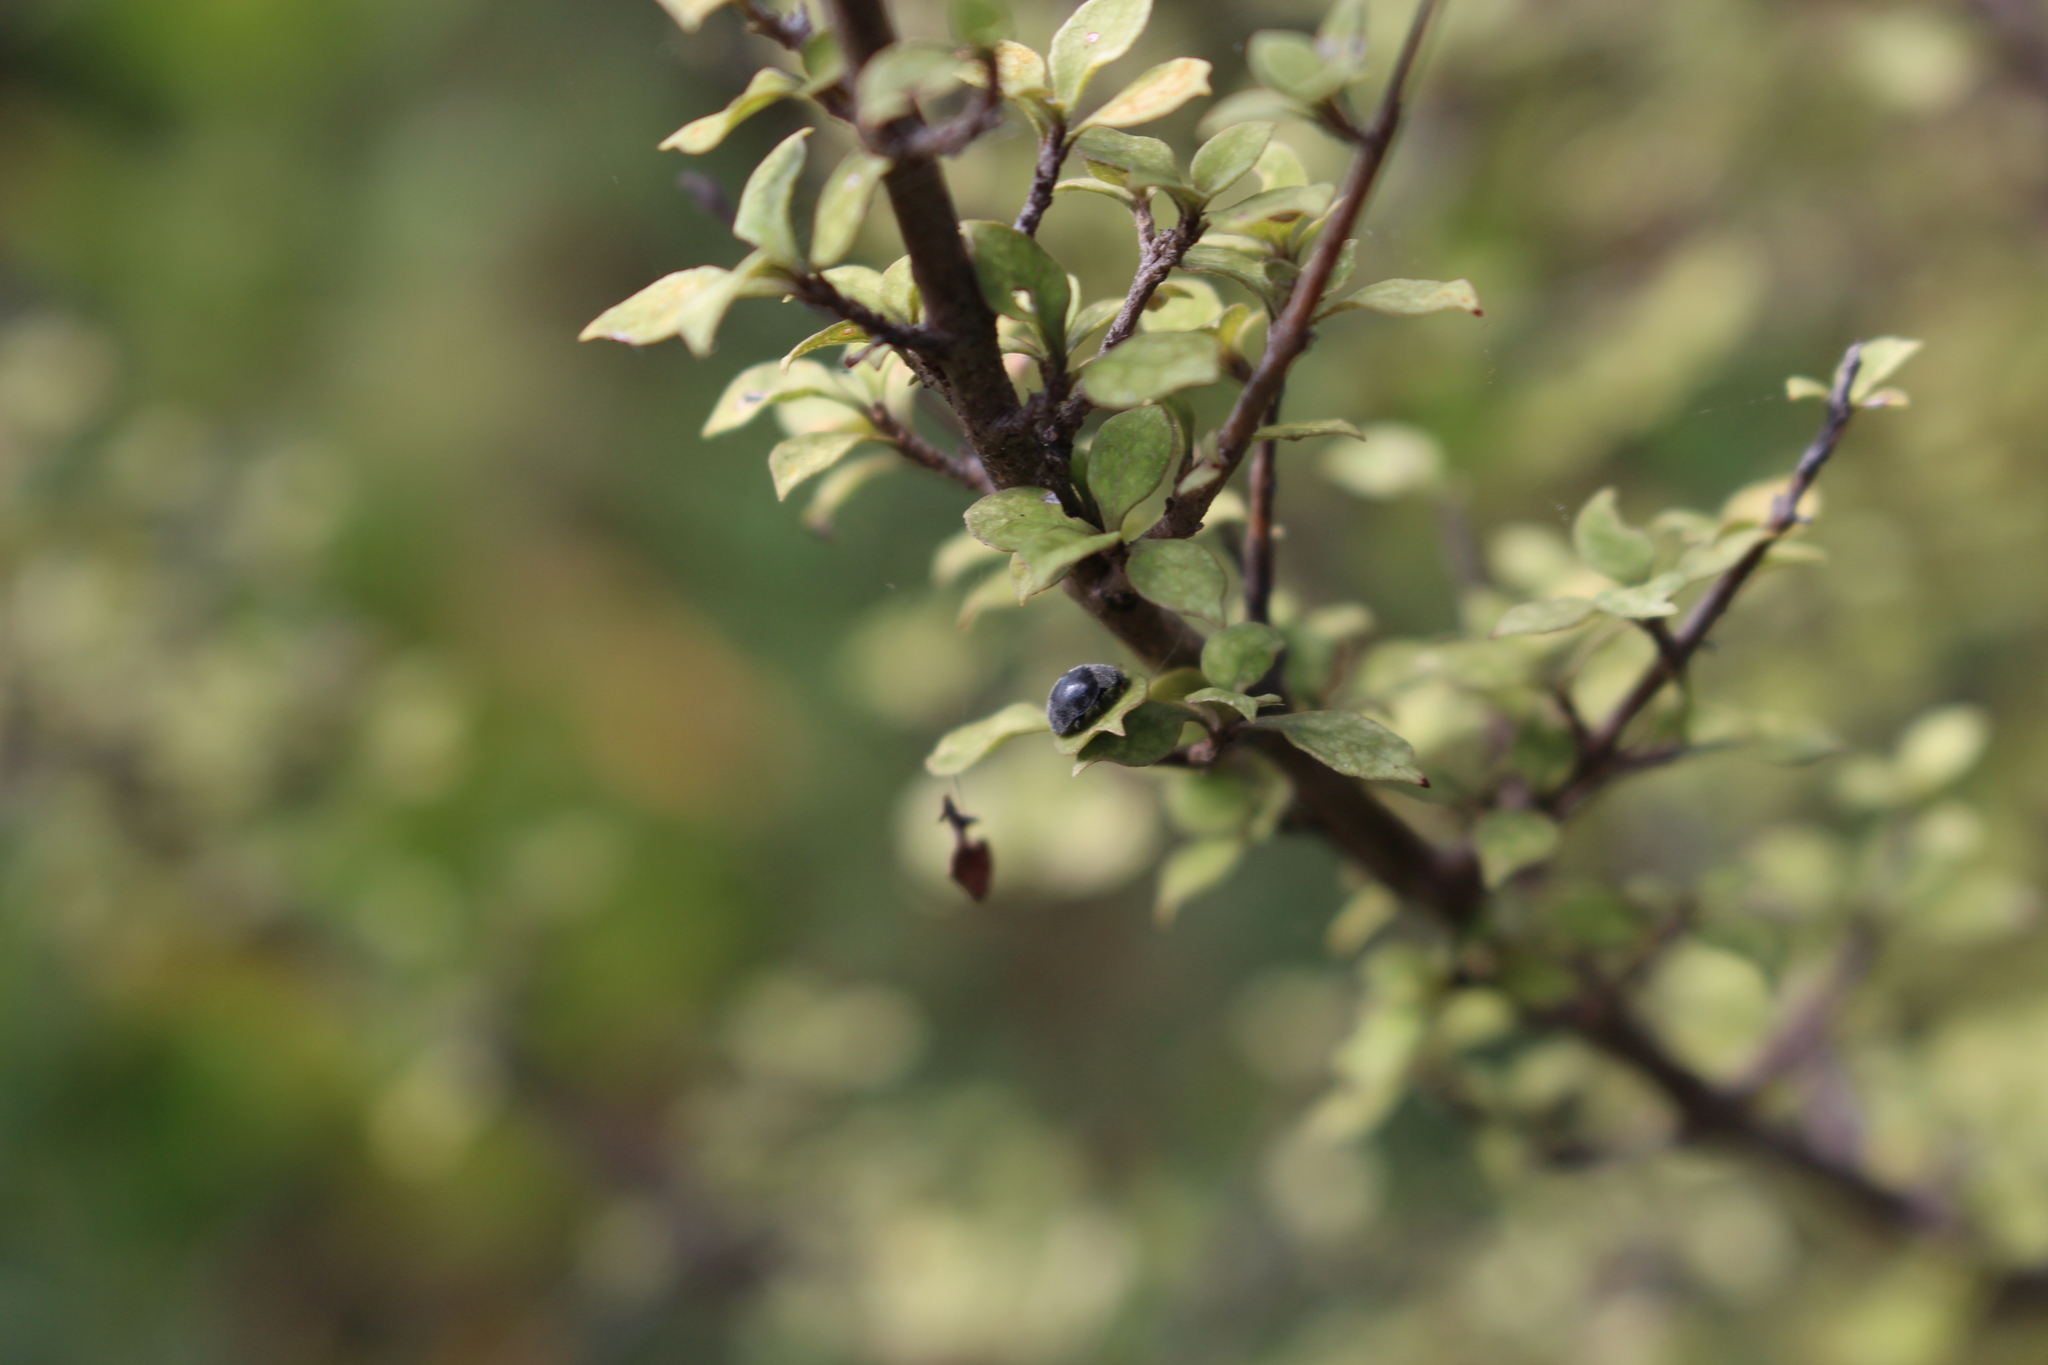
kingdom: Plantae
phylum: Tracheophyta
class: Magnoliopsida
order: Gentianales
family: Rubiaceae
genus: Coprosma
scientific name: Coprosma areolata
